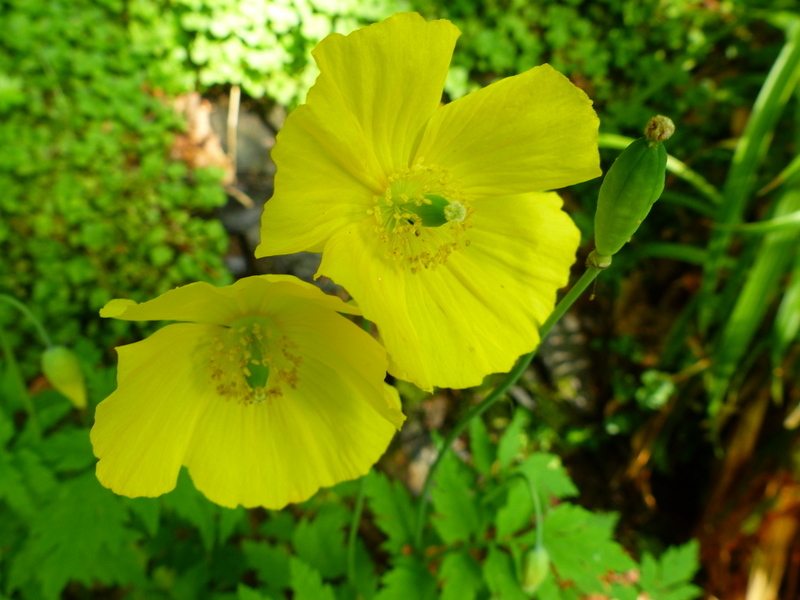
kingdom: Plantae
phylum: Tracheophyta
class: Magnoliopsida
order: Ranunculales
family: Papaveraceae
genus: Papaver
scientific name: Papaver cambricum
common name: Poppy
